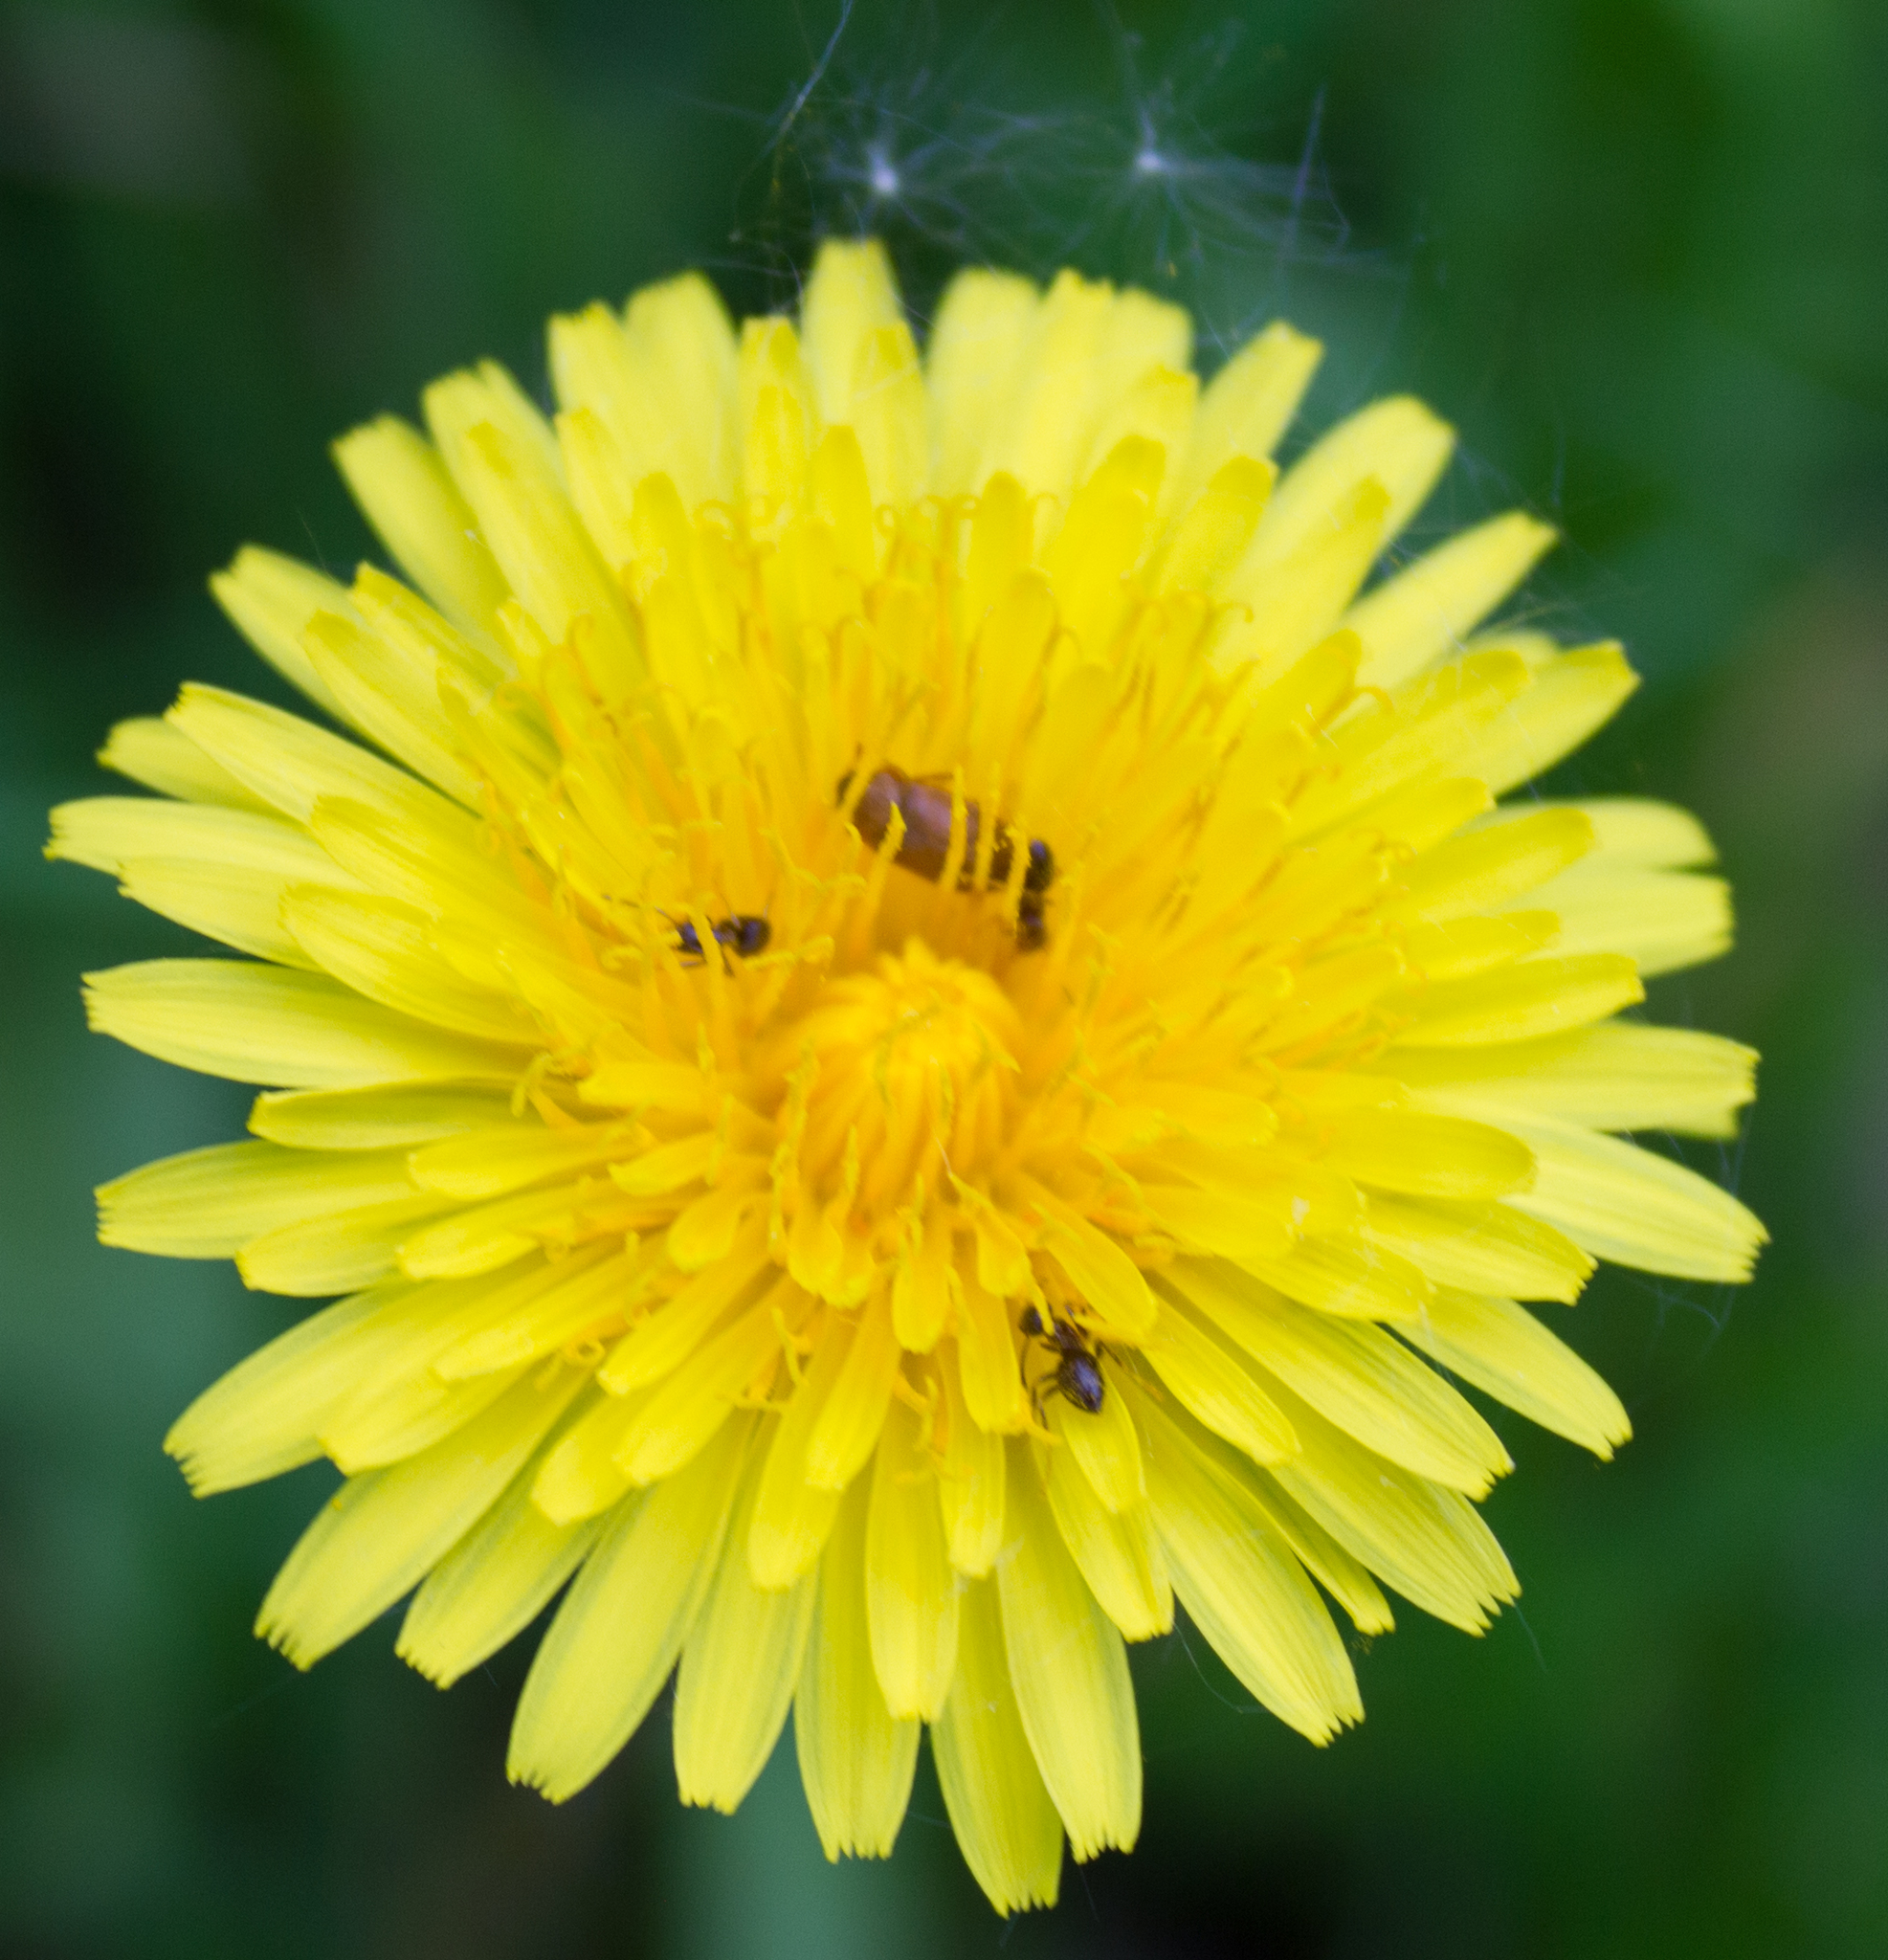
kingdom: Plantae
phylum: Tracheophyta
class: Magnoliopsida
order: Asterales
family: Asteraceae
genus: Taraxacum
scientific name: Taraxacum officinale
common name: Common dandelion
